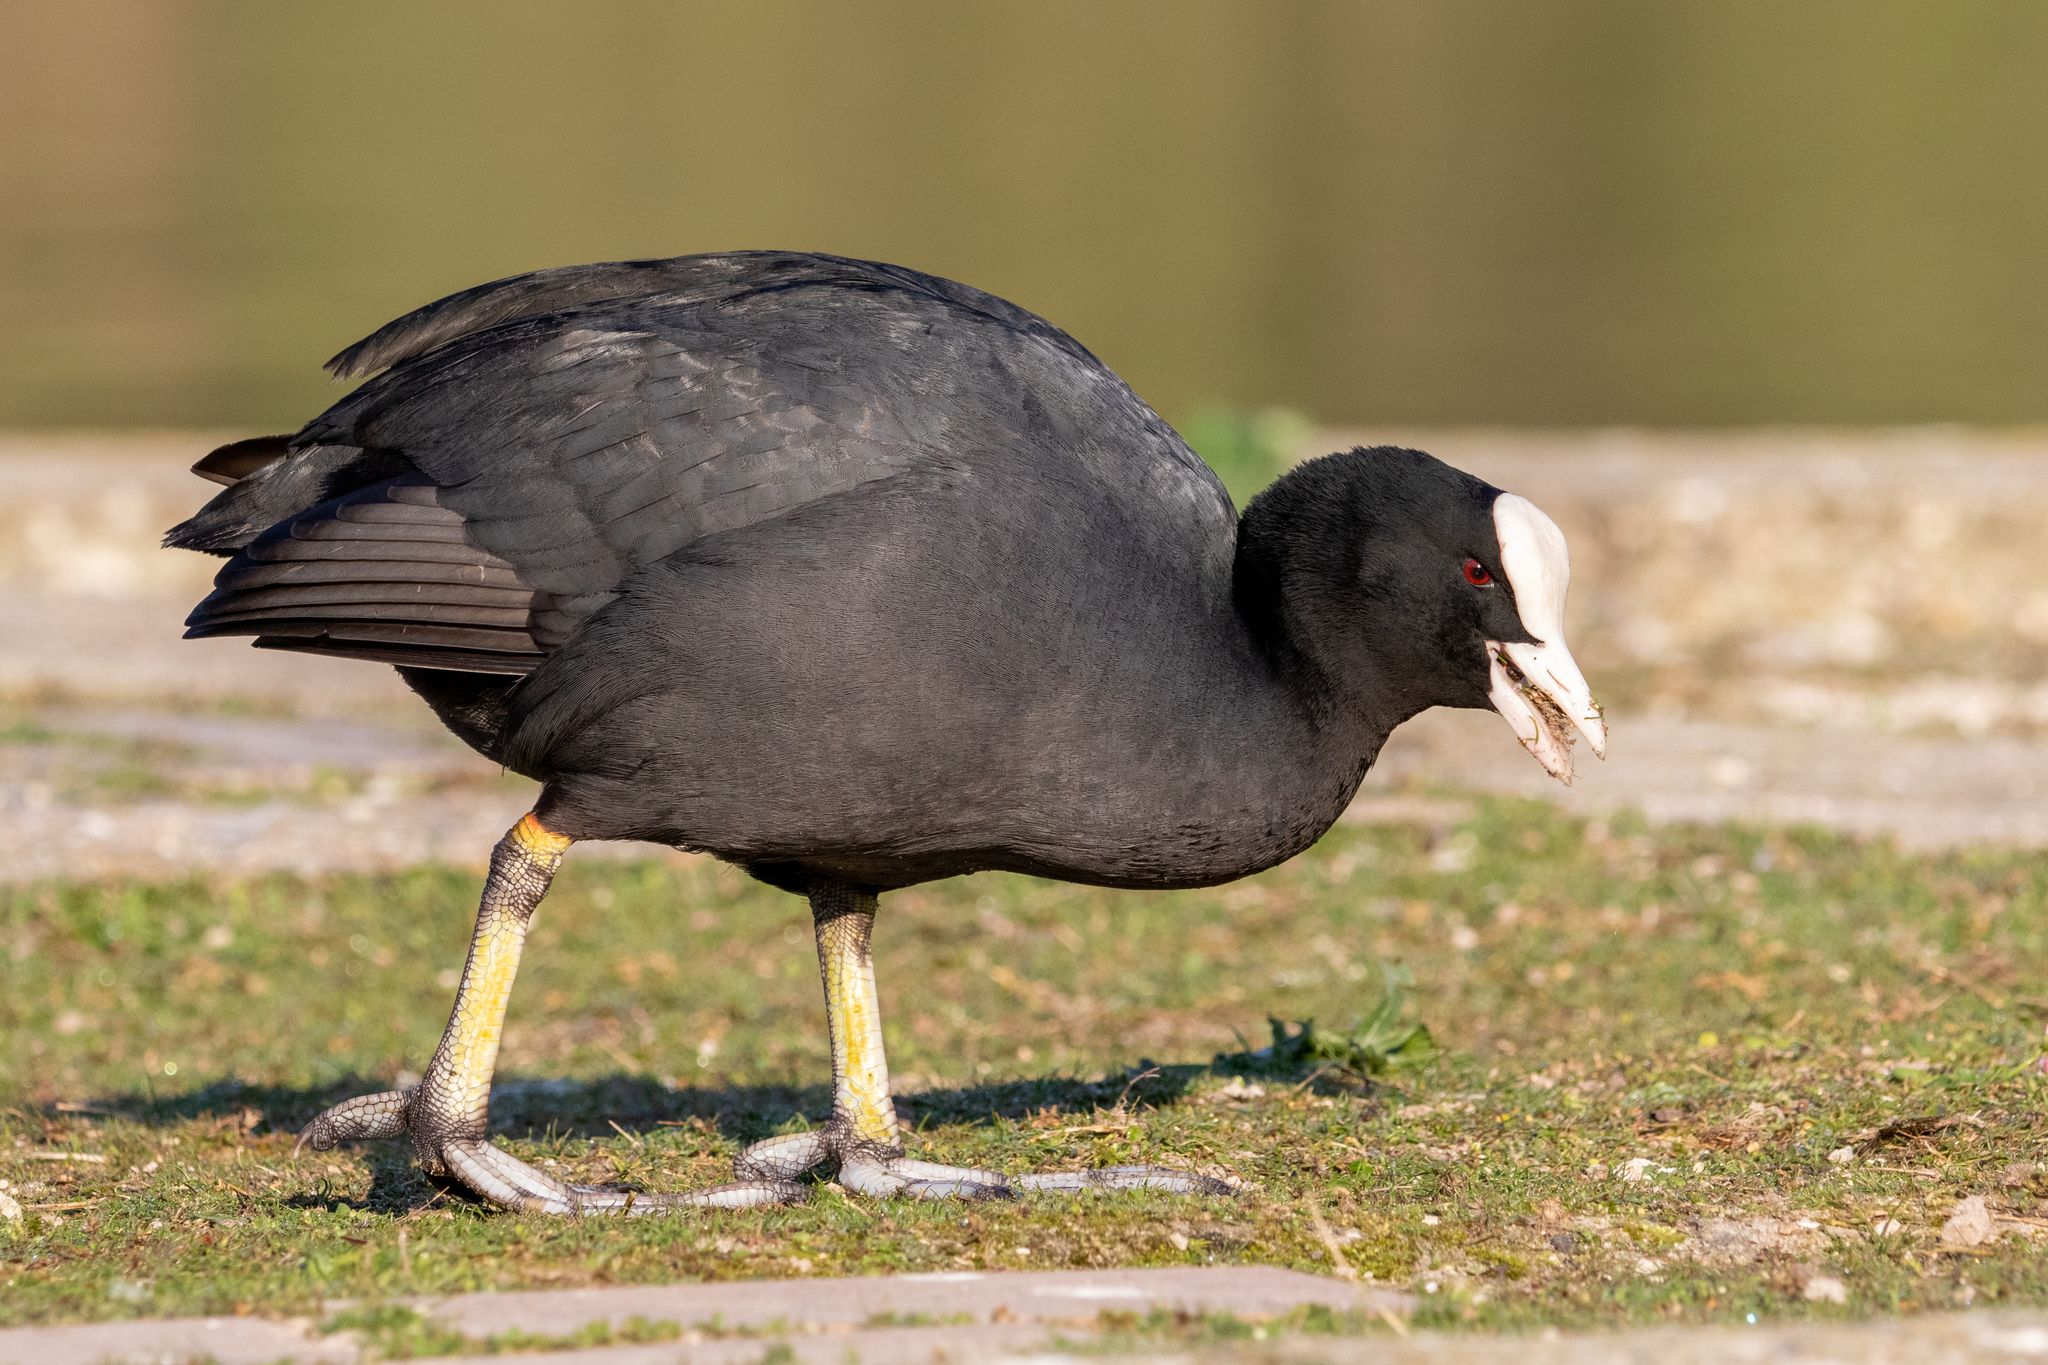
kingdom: Animalia
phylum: Chordata
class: Aves
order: Gruiformes
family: Rallidae
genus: Fulica
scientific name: Fulica atra
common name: Eurasian coot
